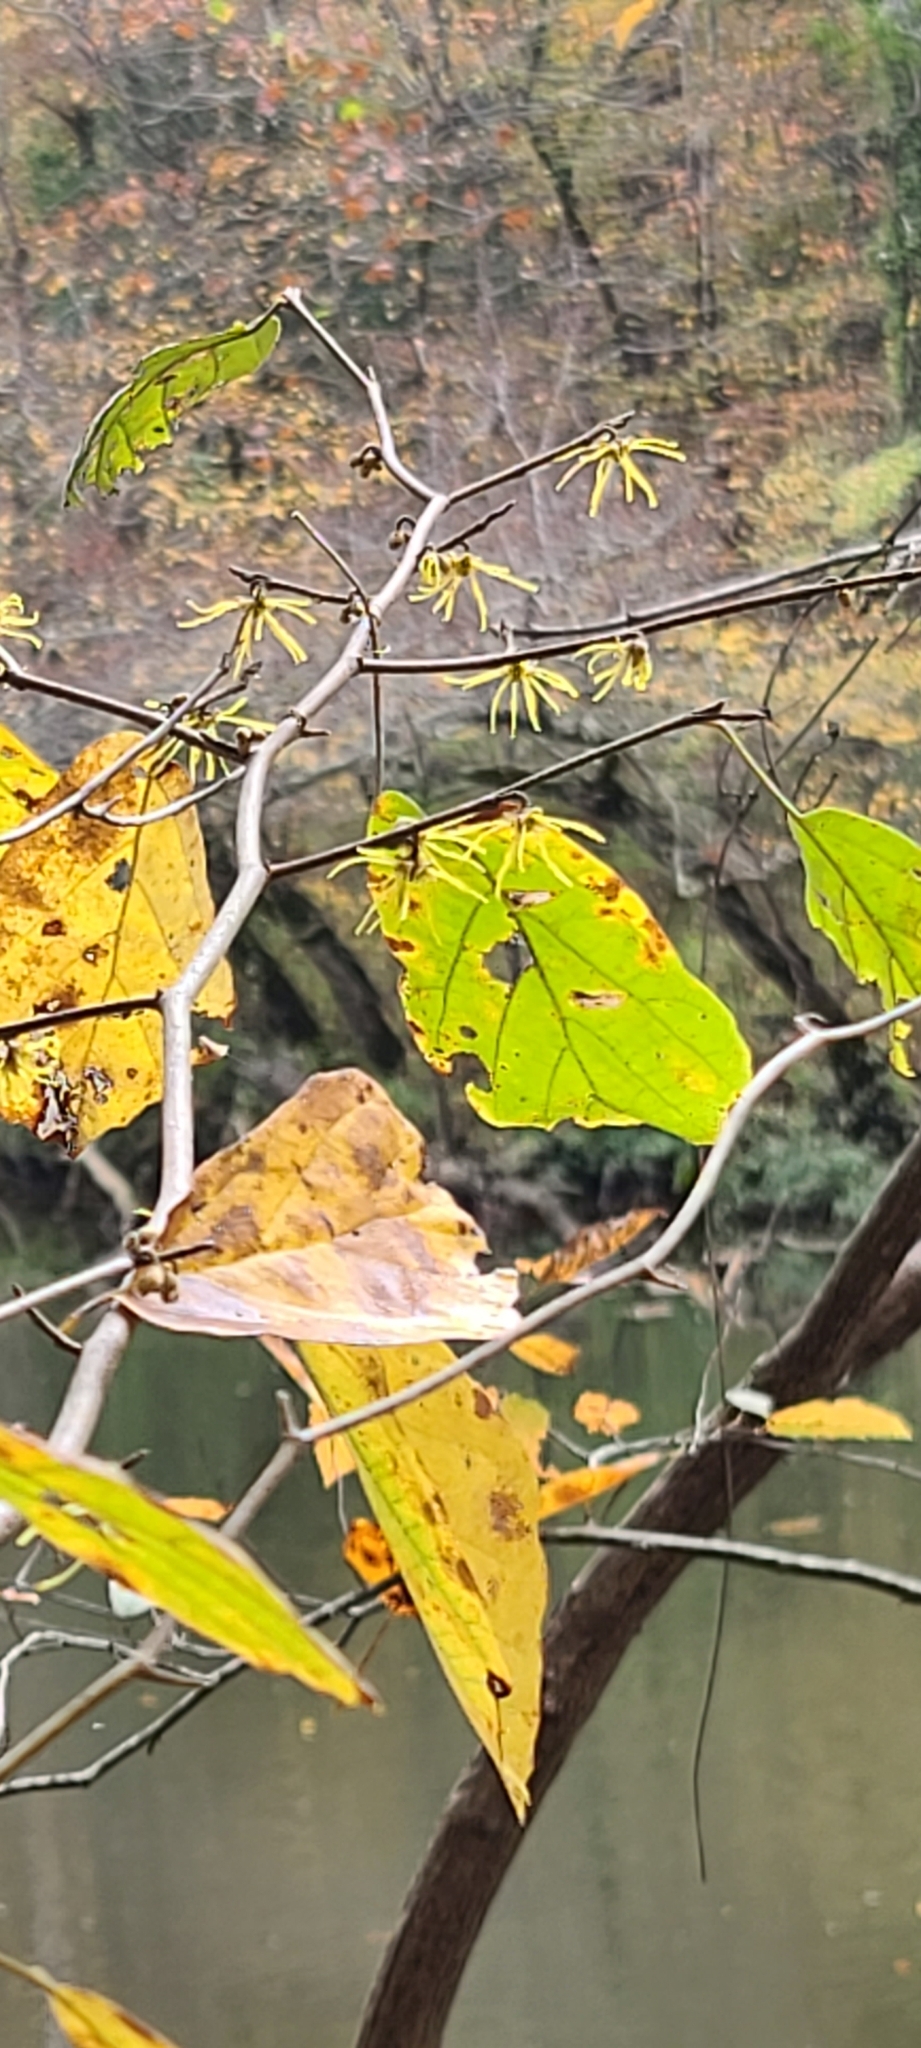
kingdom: Plantae
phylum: Tracheophyta
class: Magnoliopsida
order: Saxifragales
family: Hamamelidaceae
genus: Hamamelis
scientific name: Hamamelis virginiana
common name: Witch-hazel
